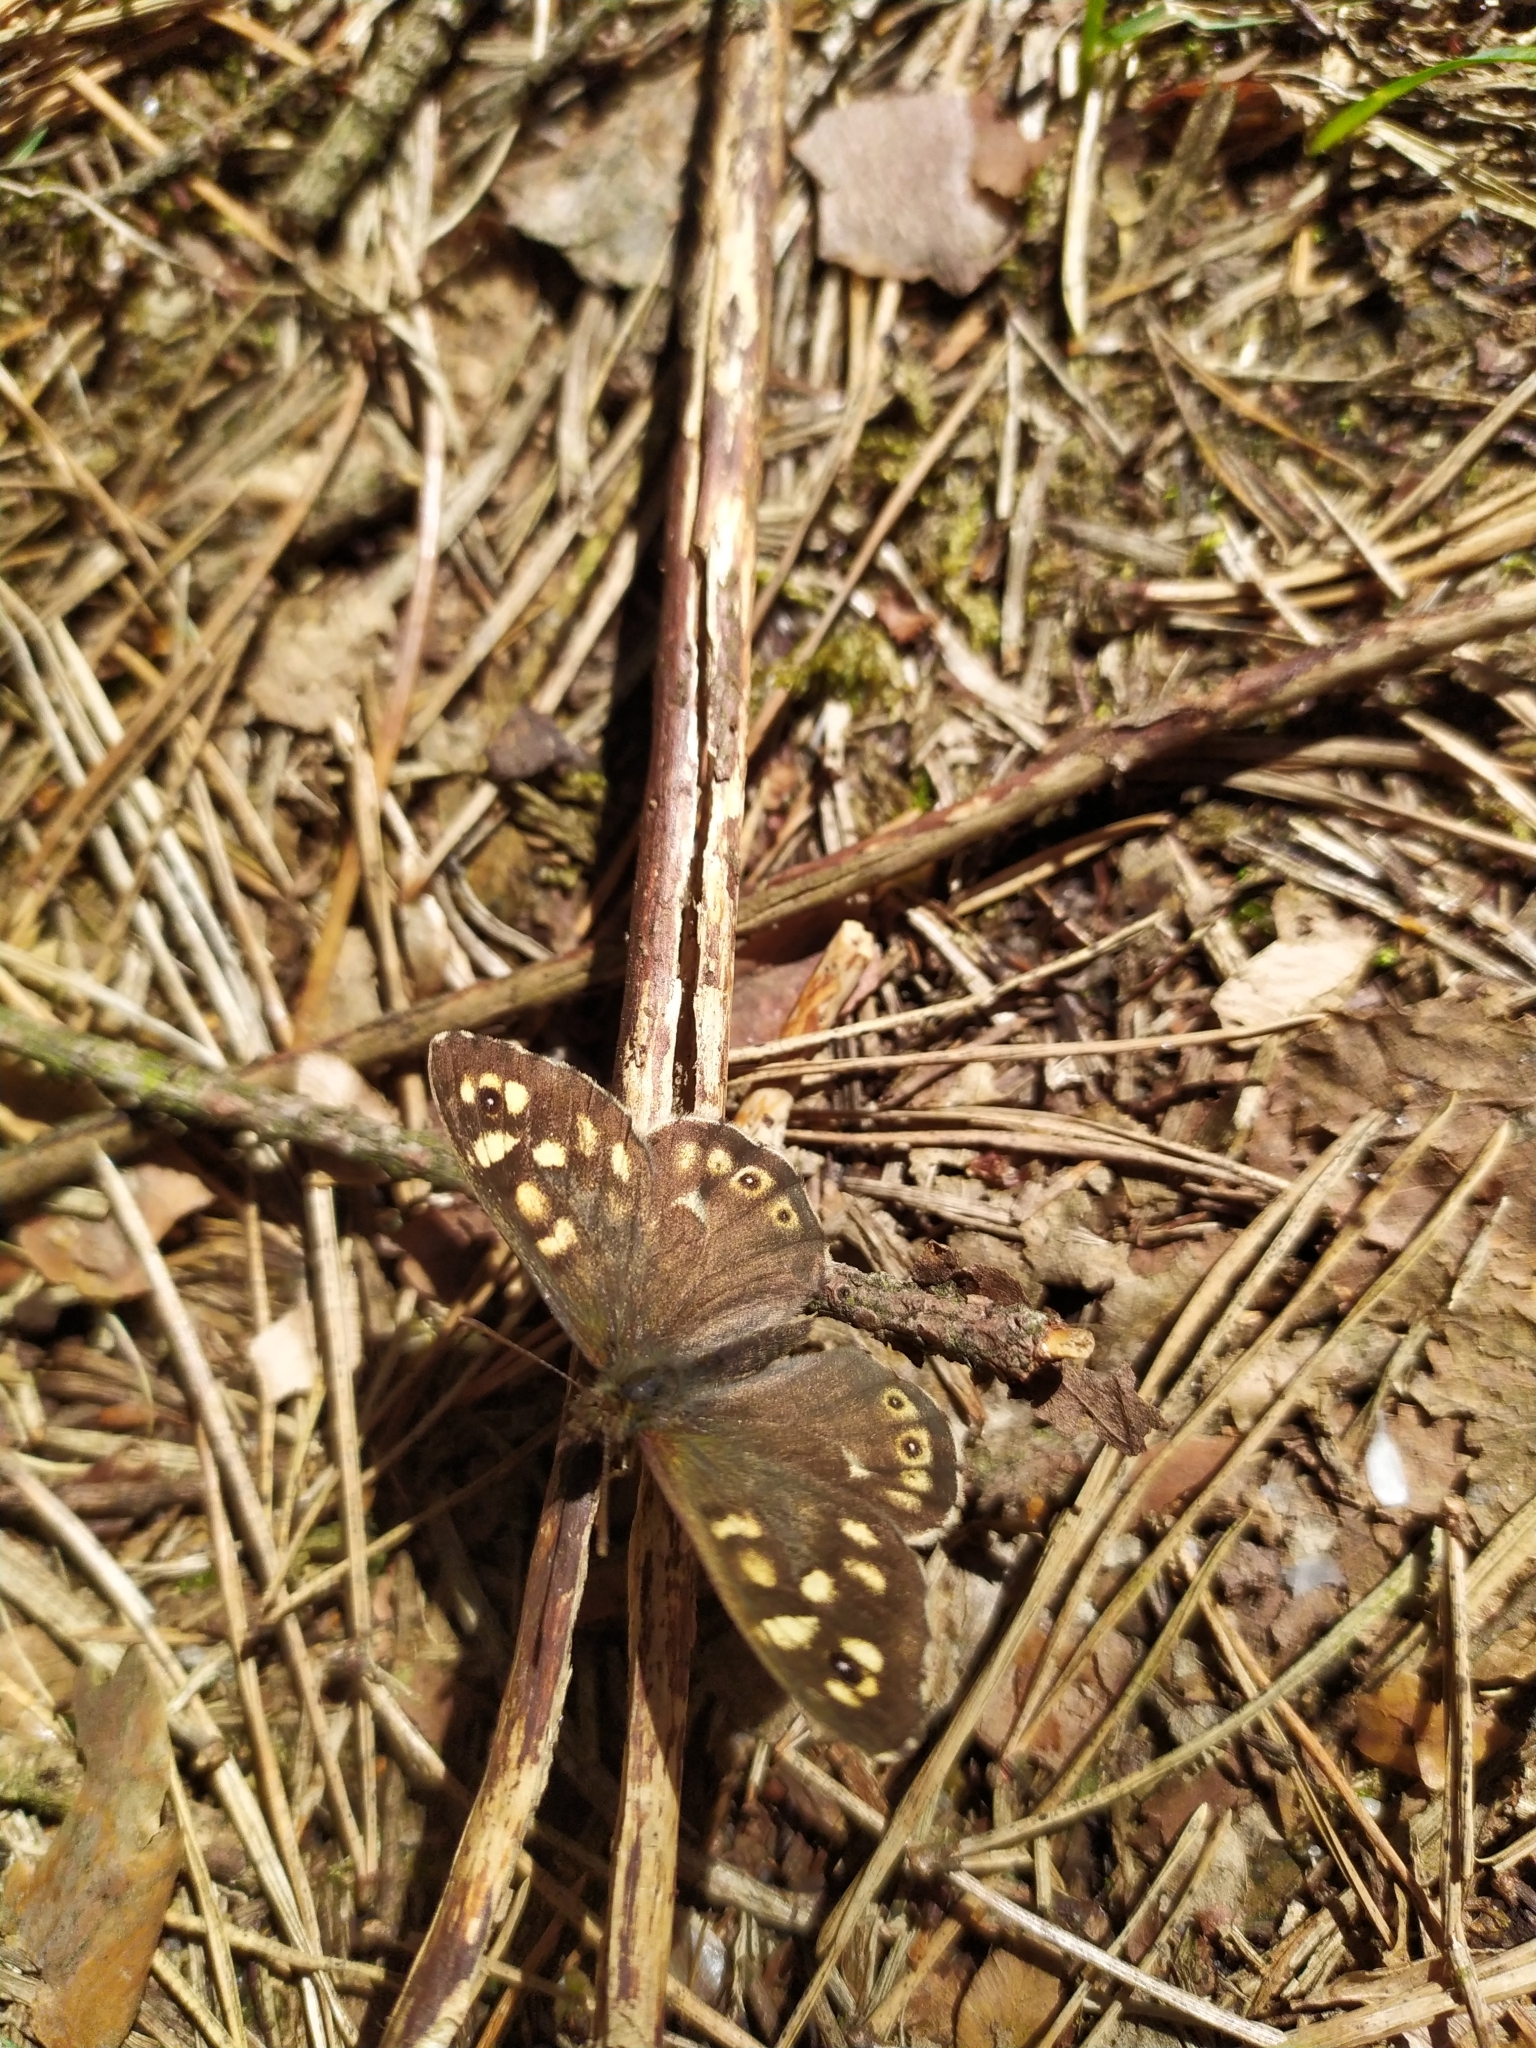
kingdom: Animalia
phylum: Arthropoda
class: Insecta
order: Lepidoptera
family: Nymphalidae
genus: Pararge
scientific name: Pararge aegeria
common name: Speckled wood
